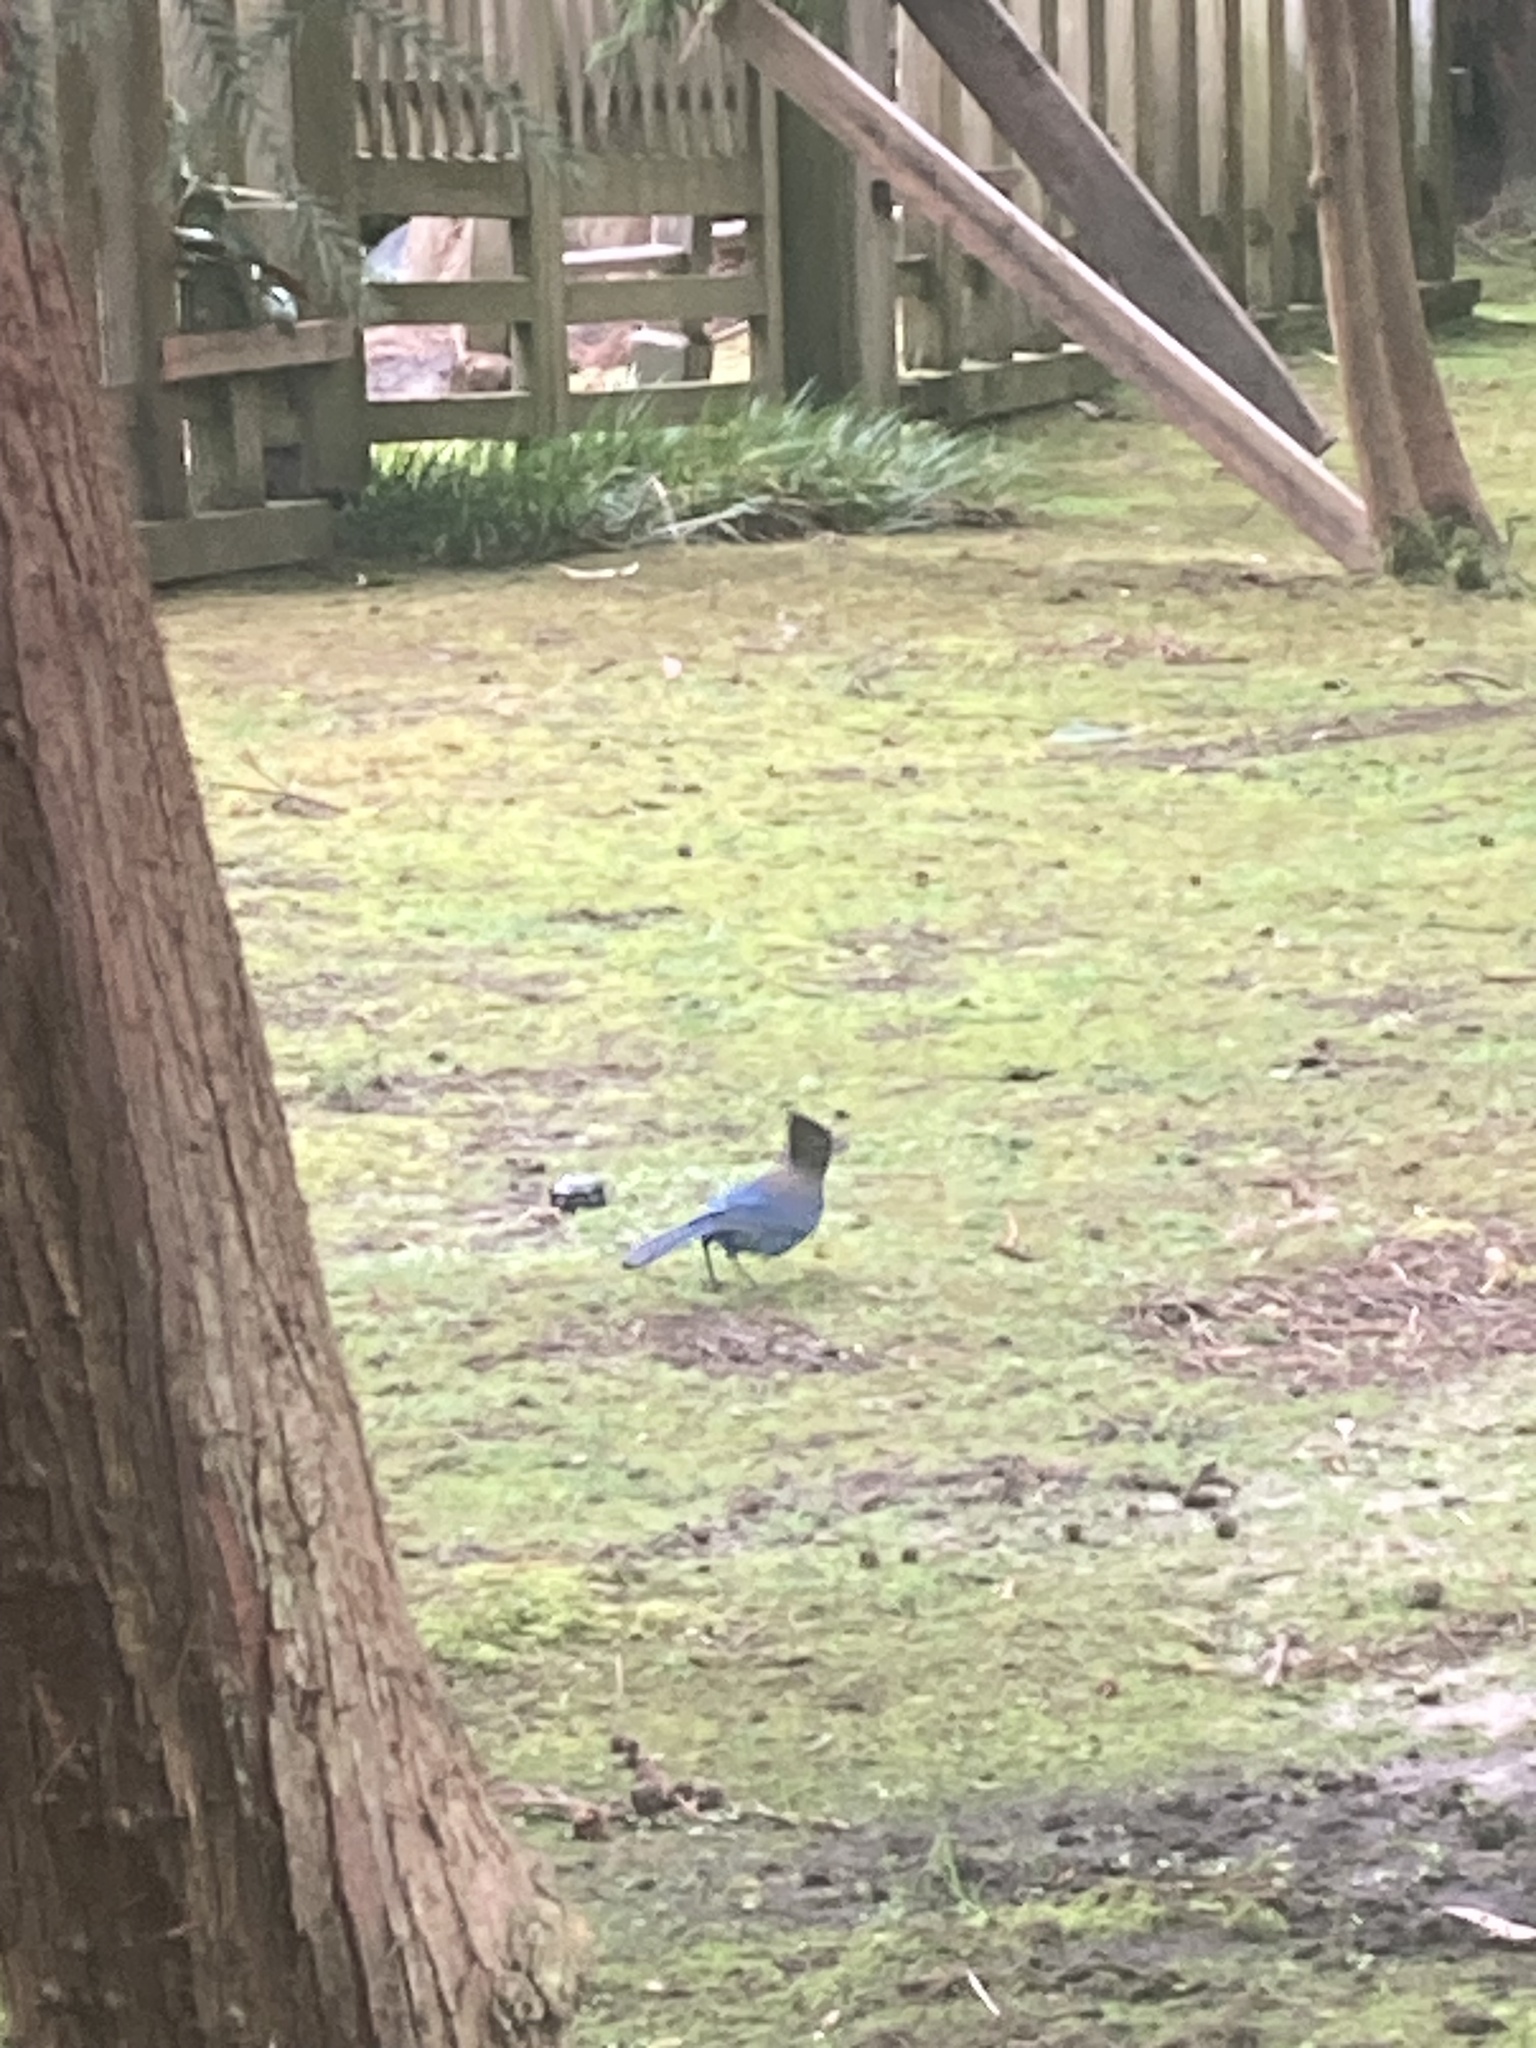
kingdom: Animalia
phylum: Chordata
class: Aves
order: Passeriformes
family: Corvidae
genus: Cyanocitta
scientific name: Cyanocitta stelleri
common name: Steller's jay
